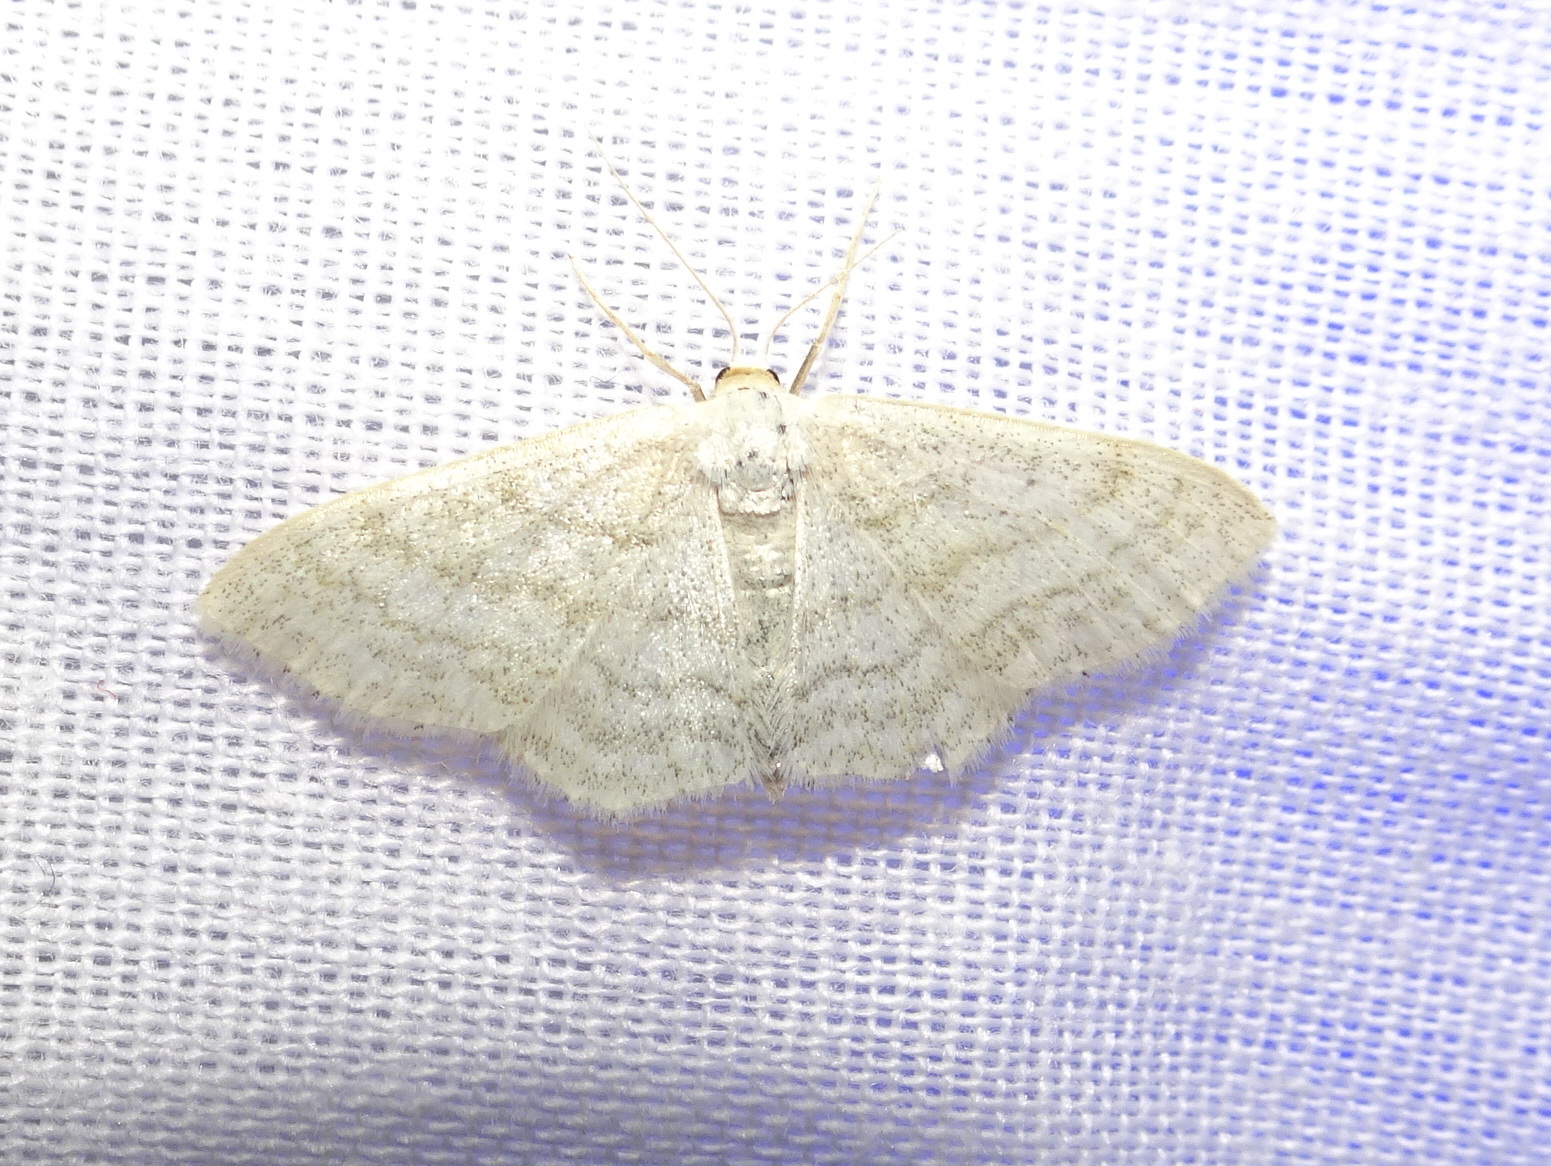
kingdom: Animalia
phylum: Arthropoda
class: Insecta
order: Lepidoptera
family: Geometridae
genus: Idaea
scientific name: Idaea subsericeata
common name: Satin wave
